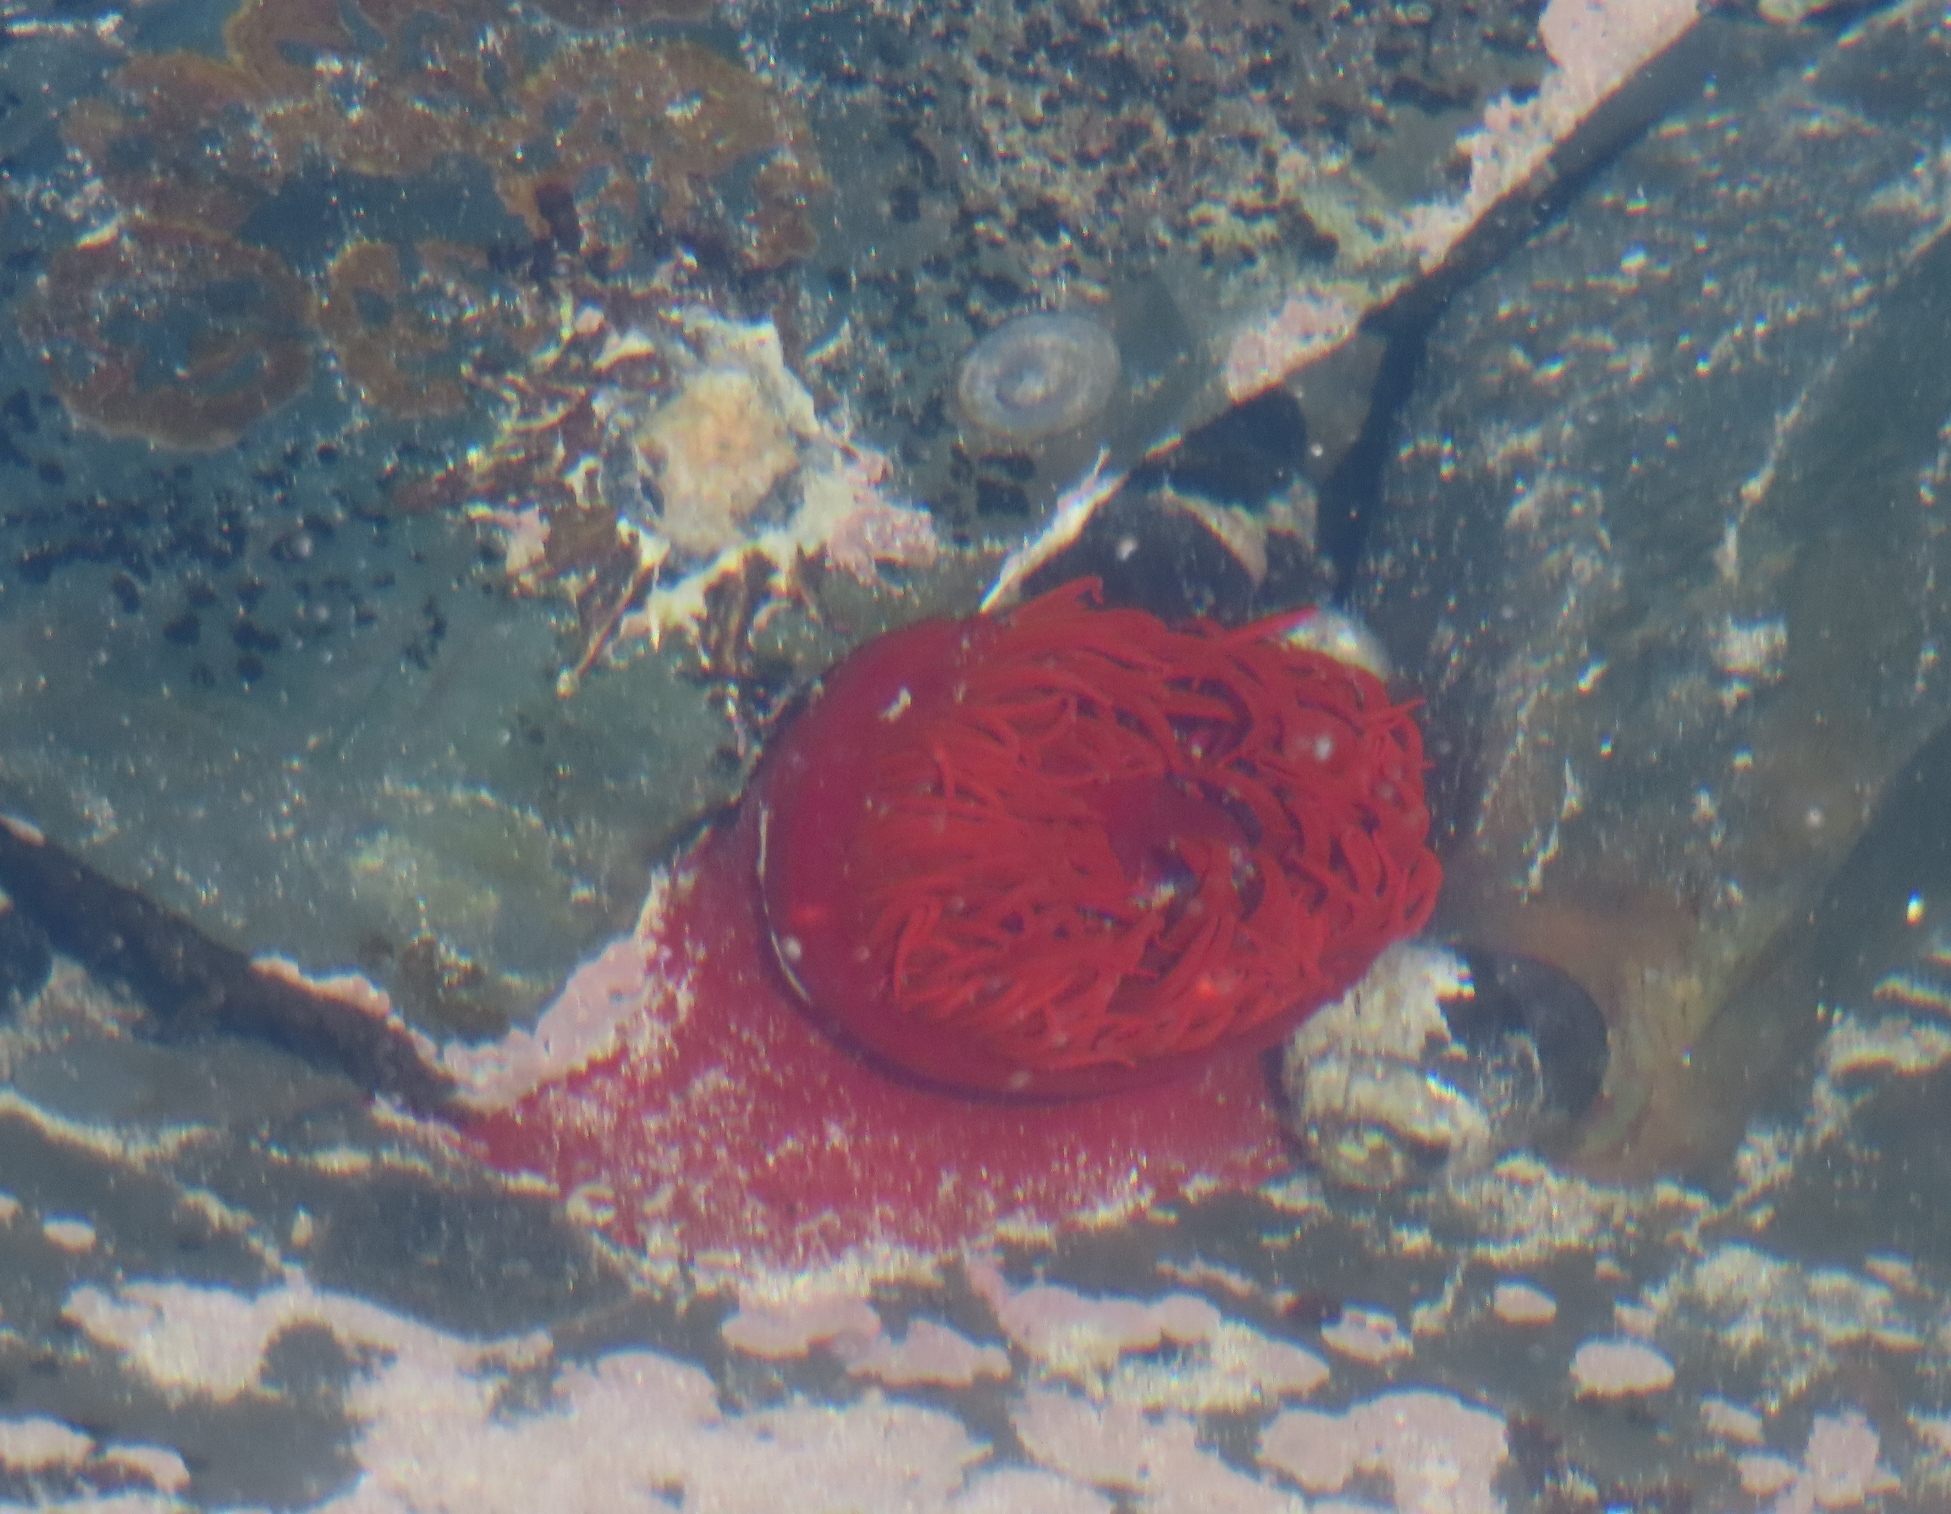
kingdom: Animalia
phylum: Cnidaria
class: Anthozoa
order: Actiniaria
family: Actiniidae
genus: Actinia
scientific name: Actinia ebhayiensis
